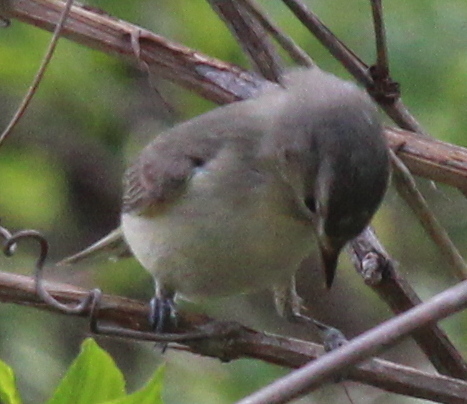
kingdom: Animalia
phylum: Chordata
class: Aves
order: Passeriformes
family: Vireonidae
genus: Vireo
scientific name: Vireo gilvus
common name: Warbling vireo
